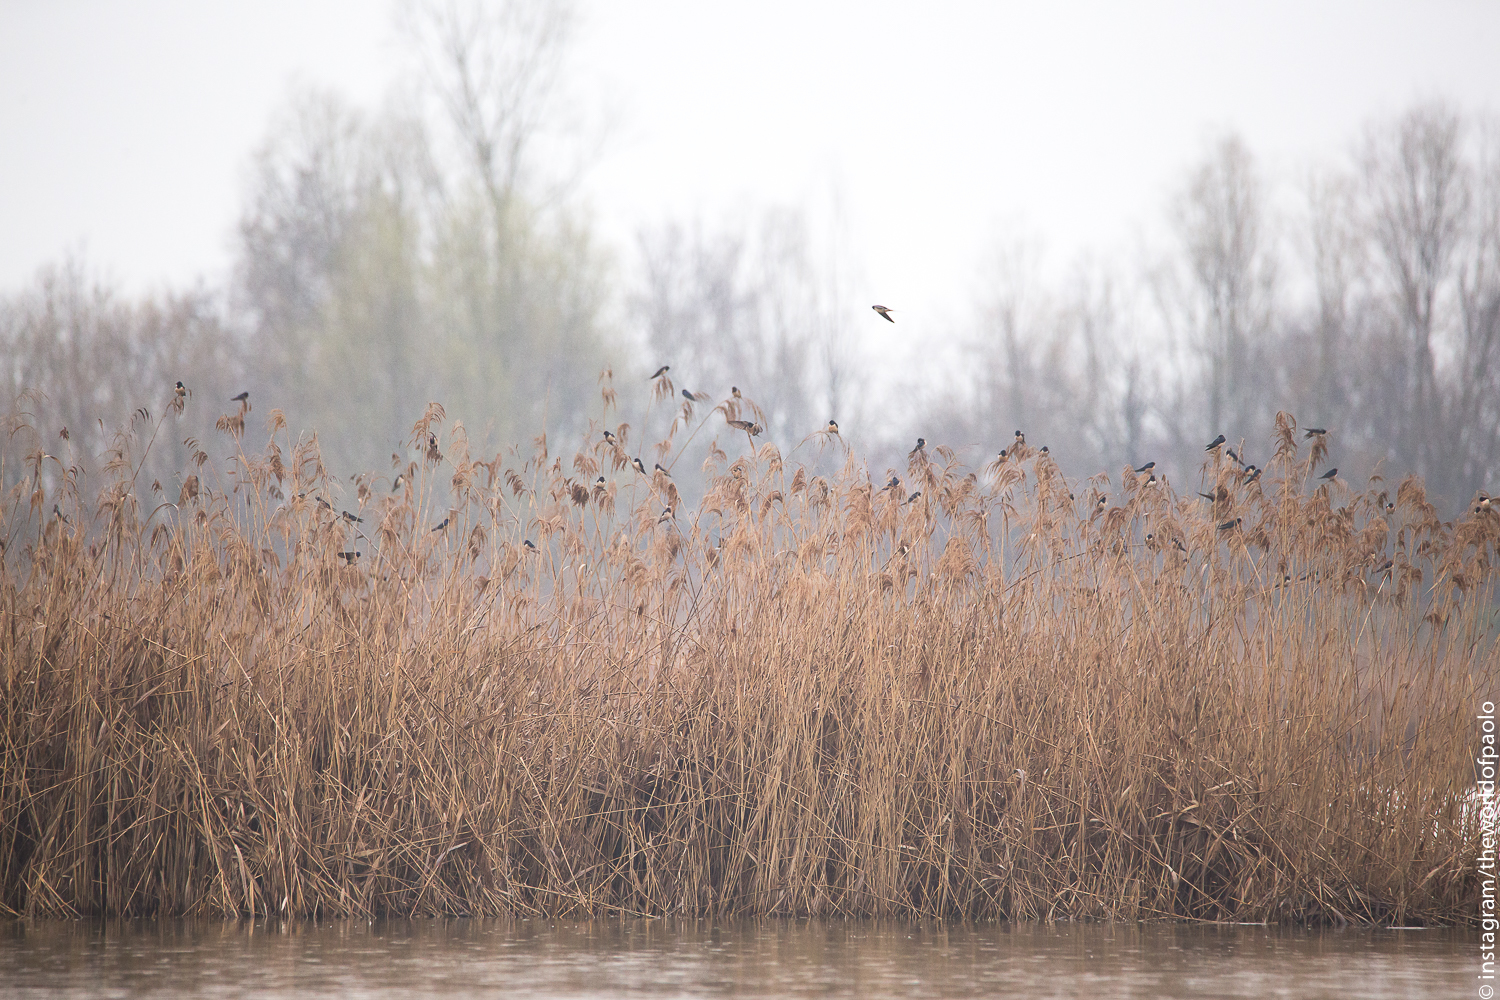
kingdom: Animalia
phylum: Chordata
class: Aves
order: Passeriformes
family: Hirundinidae
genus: Hirundo
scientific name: Hirundo rustica
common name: Barn swallow
